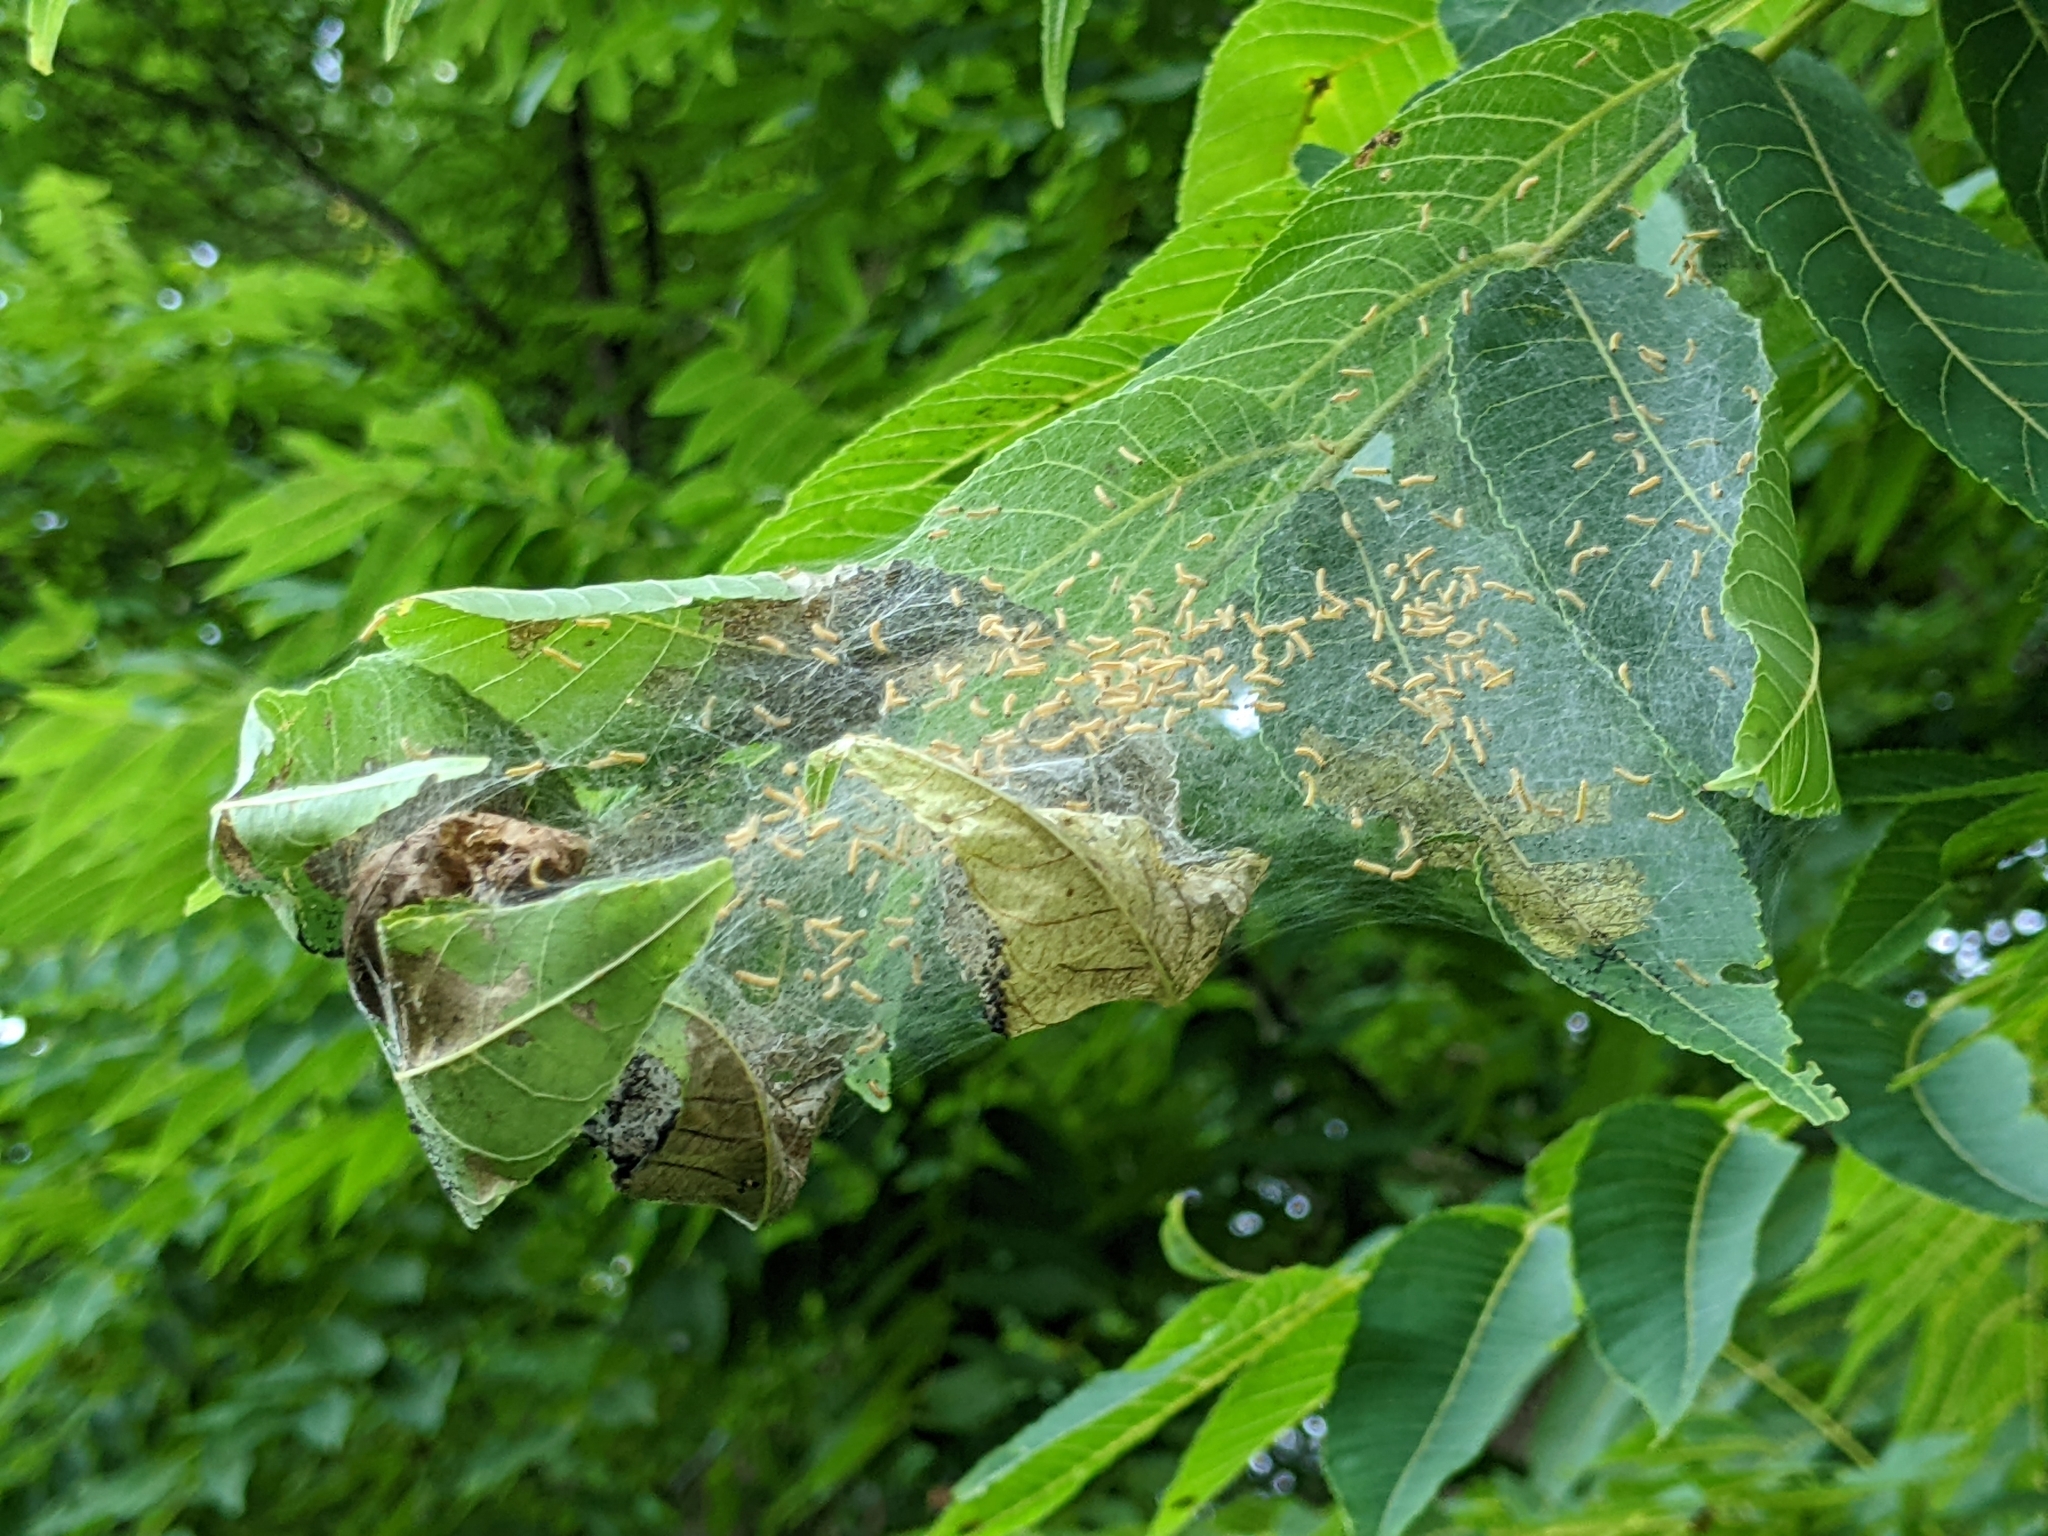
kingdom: Animalia
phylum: Arthropoda
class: Insecta
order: Lepidoptera
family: Erebidae
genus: Hyphantria
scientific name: Hyphantria cunea
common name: American white moth
